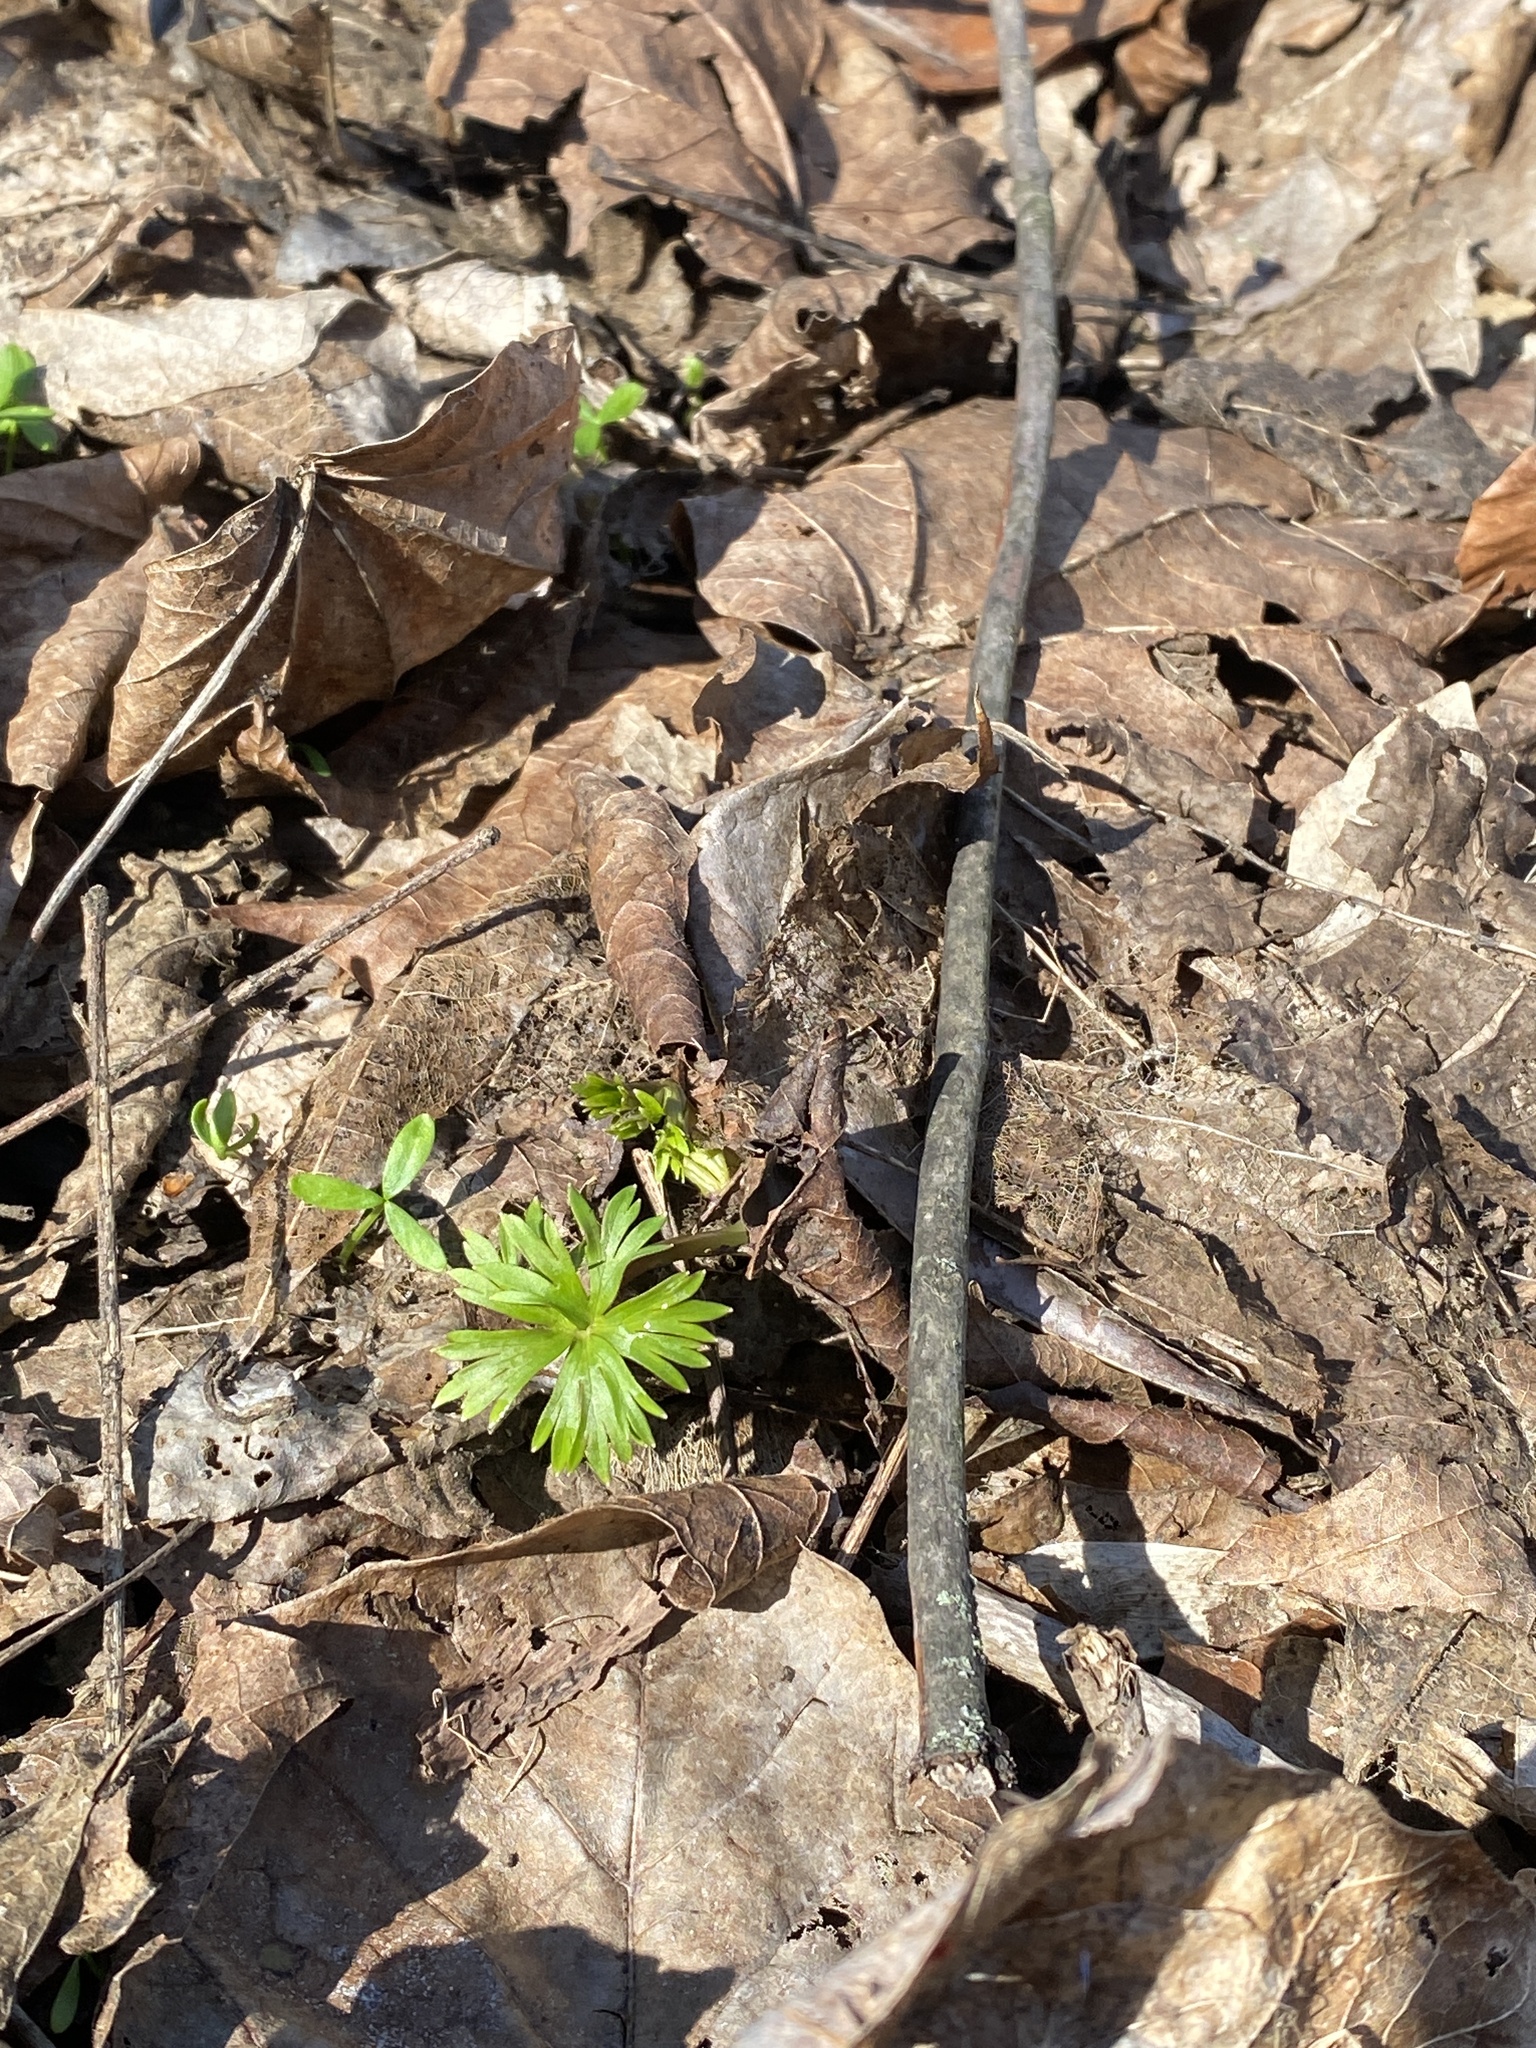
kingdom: Plantae
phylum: Tracheophyta
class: Magnoliopsida
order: Ranunculales
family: Ranunculaceae
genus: Delphinium
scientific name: Delphinium tricorne
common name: Dwarf larkspur
